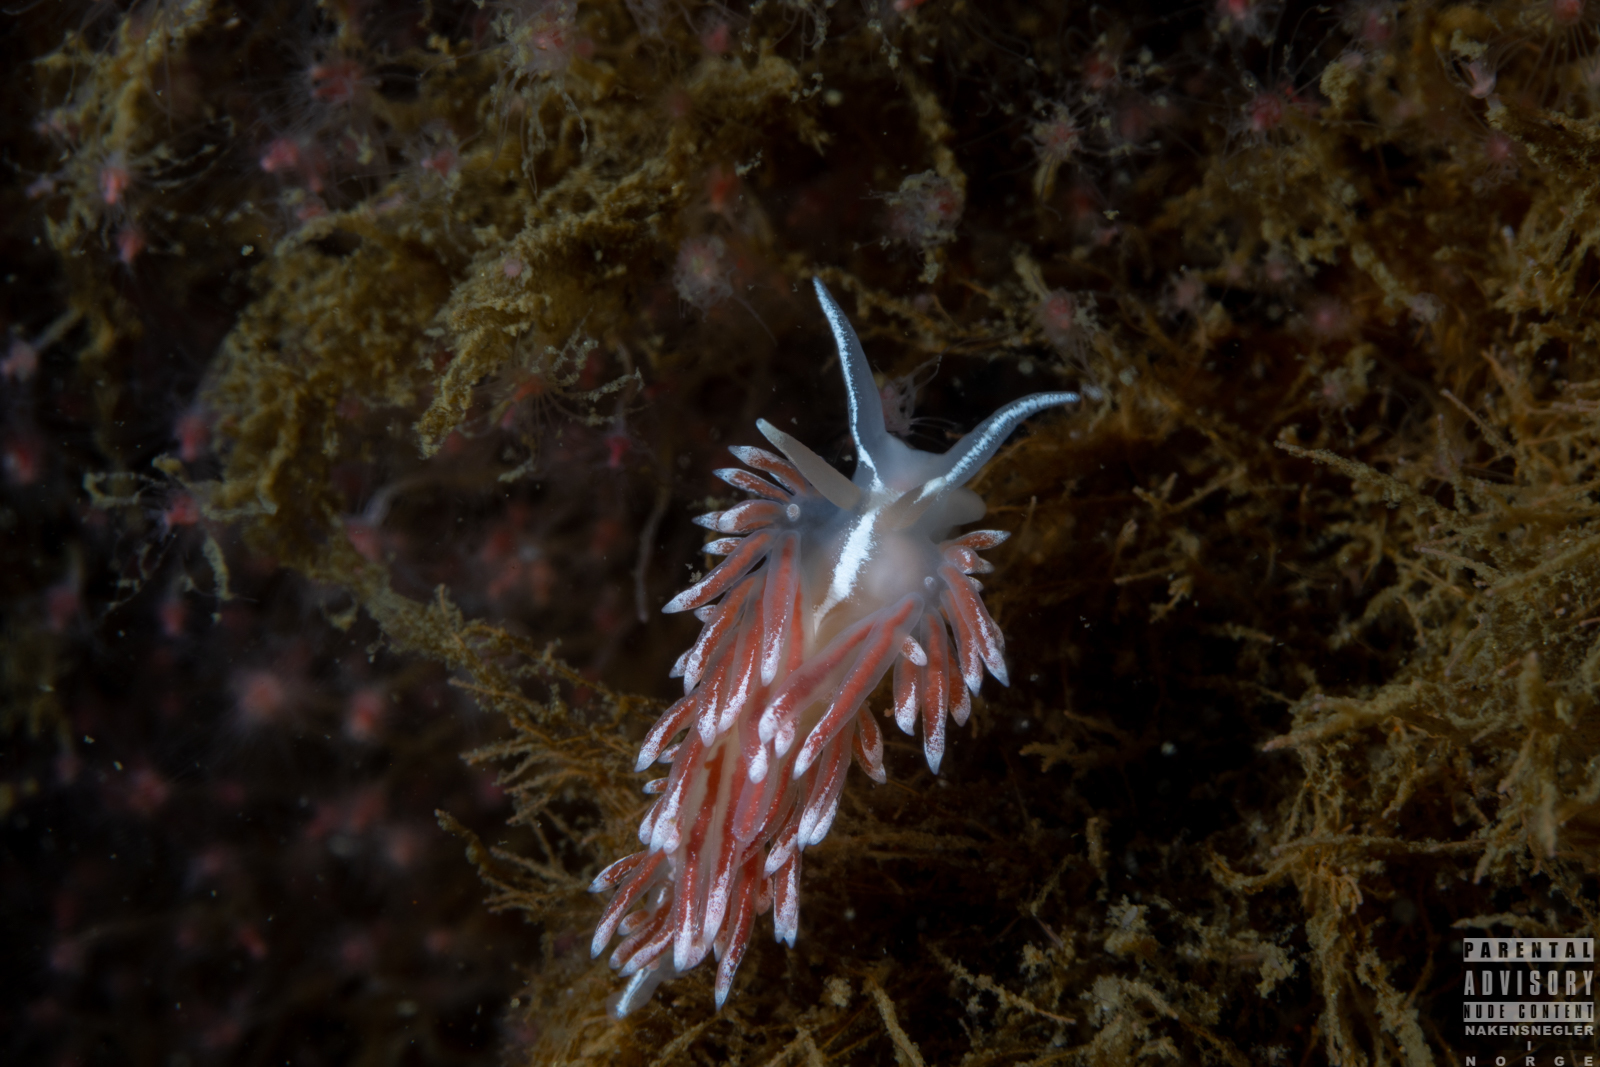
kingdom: Animalia
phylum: Mollusca
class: Gastropoda
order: Nudibranchia
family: Coryphellidae
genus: Coryphella
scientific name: Coryphella lineata
